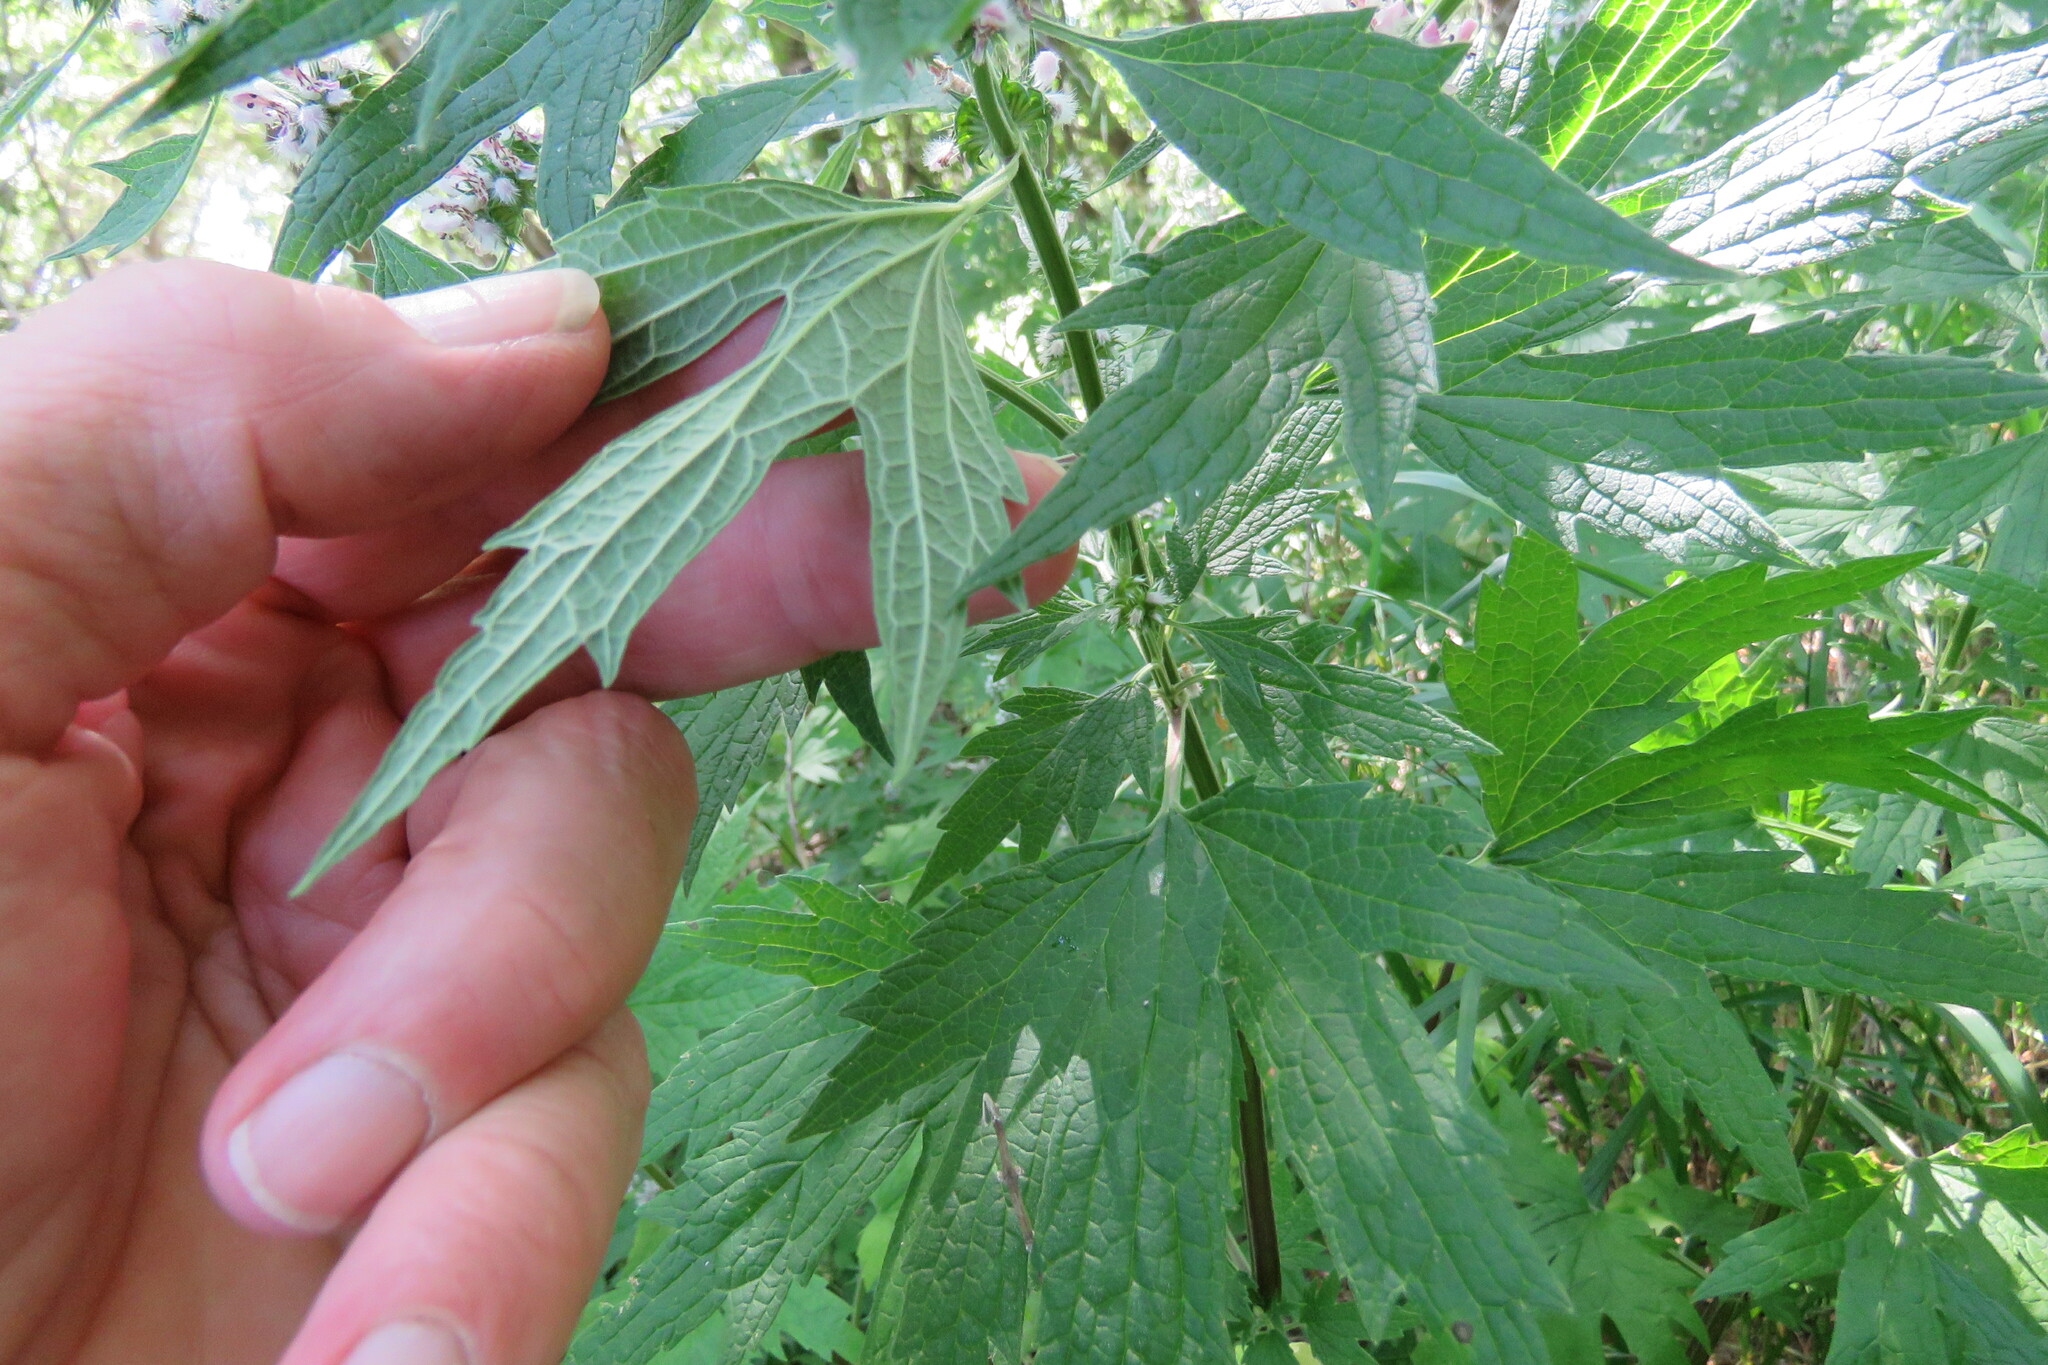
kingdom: Plantae
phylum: Tracheophyta
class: Magnoliopsida
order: Lamiales
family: Lamiaceae
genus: Leonurus
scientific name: Leonurus cardiaca
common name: Motherwort
